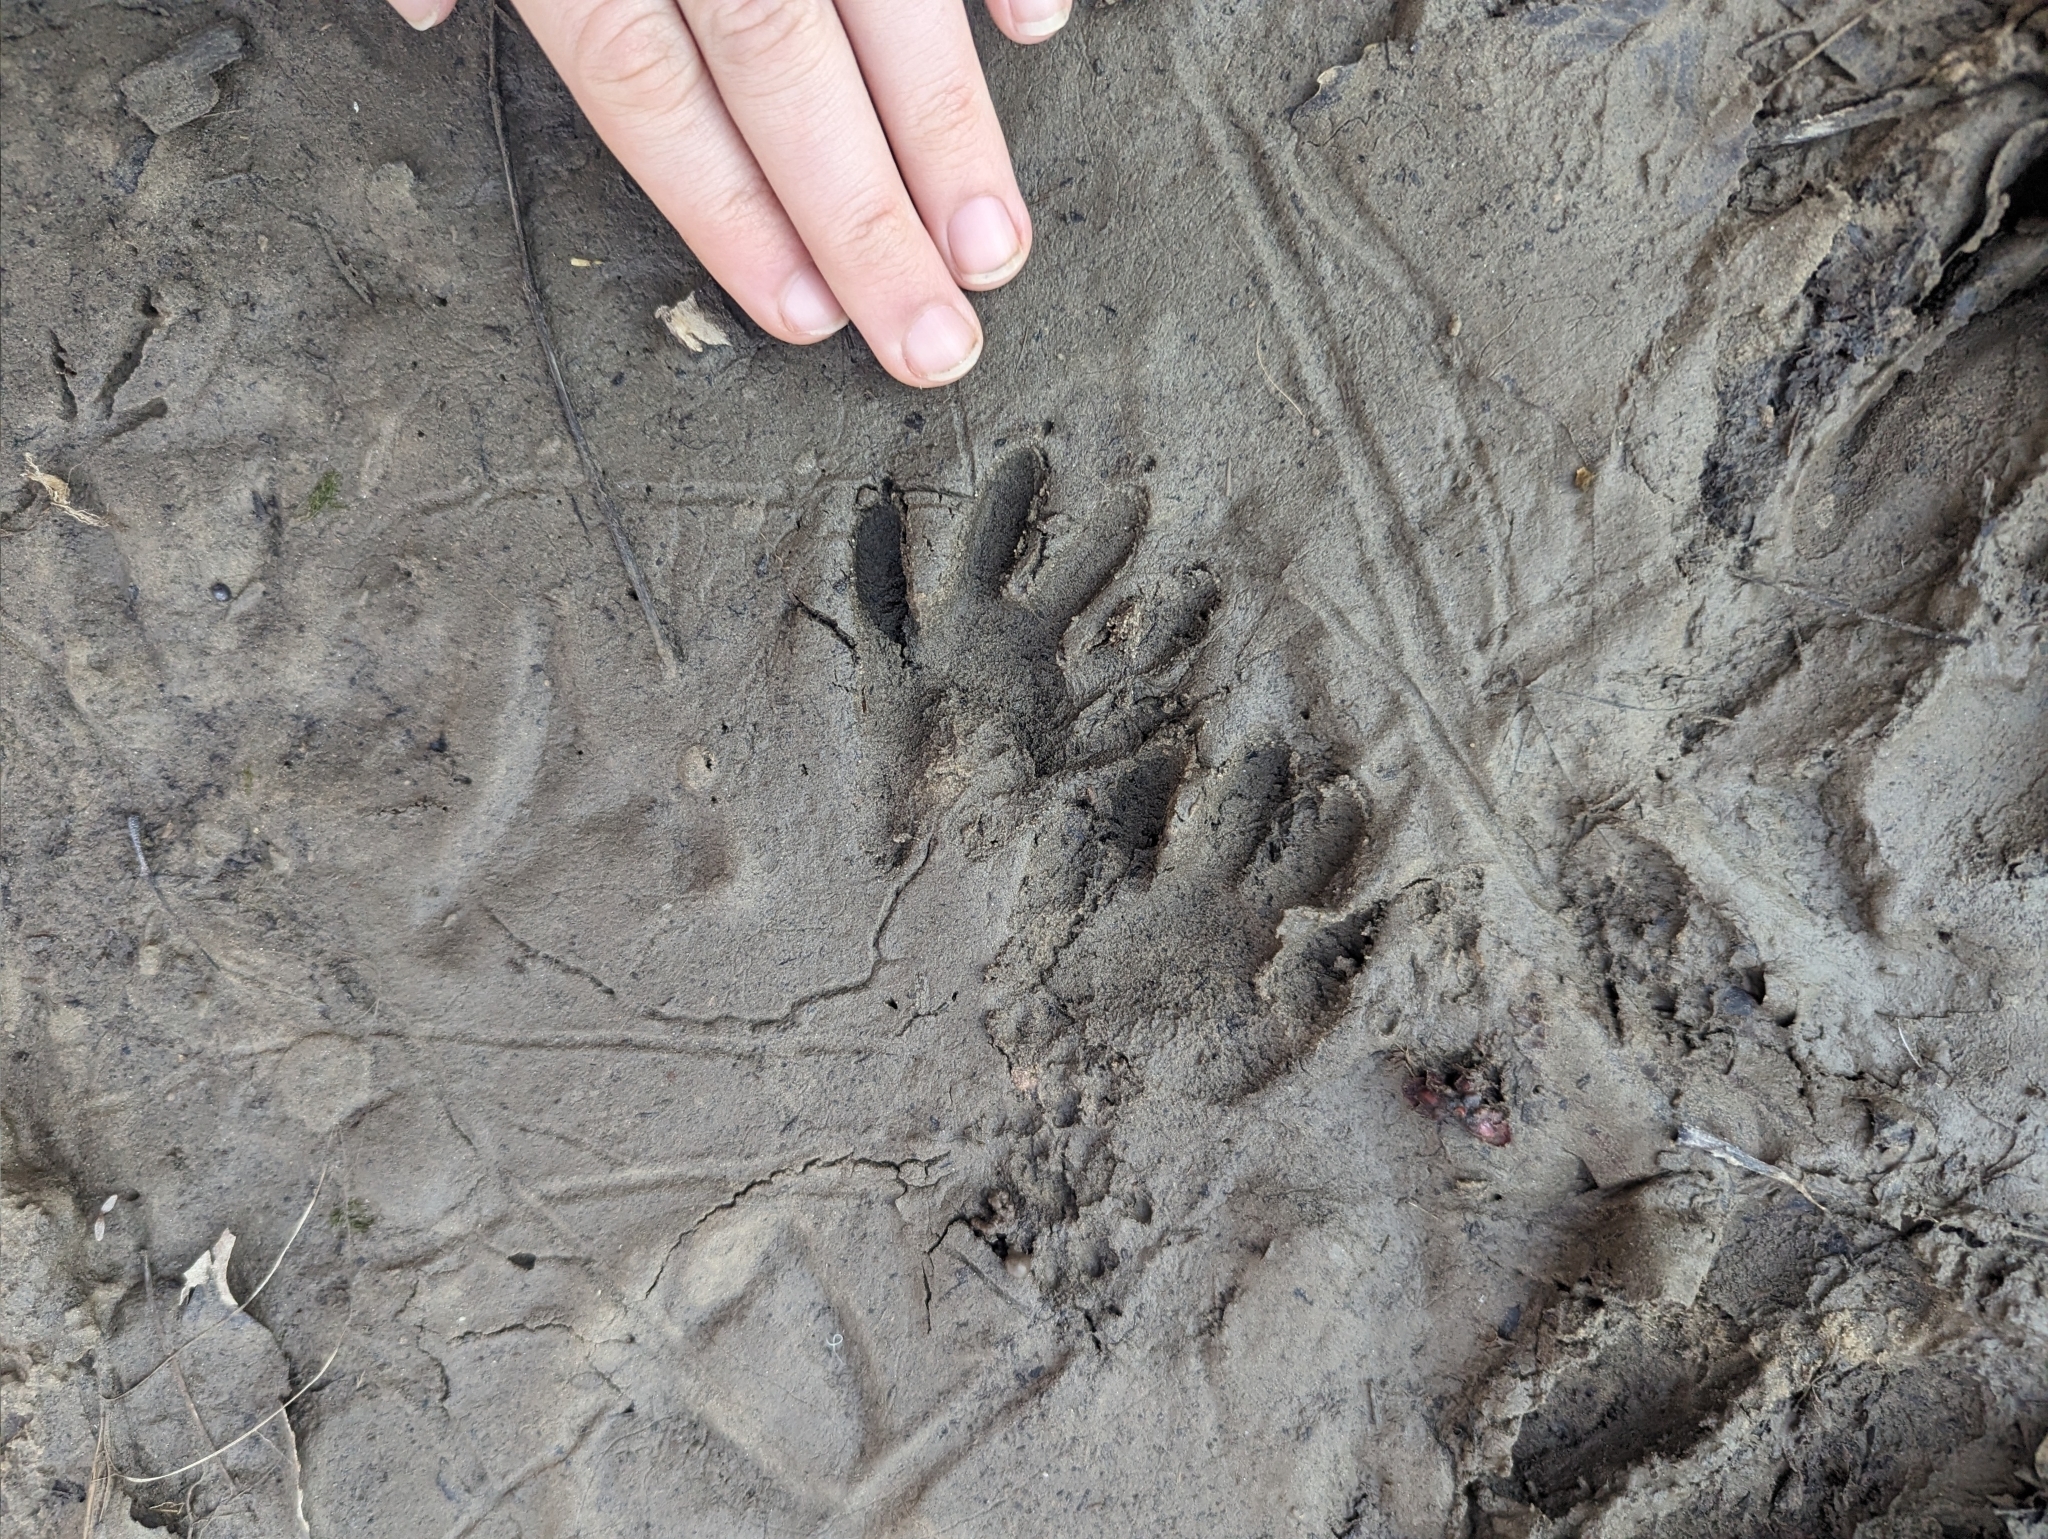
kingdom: Animalia
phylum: Chordata
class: Mammalia
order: Carnivora
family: Procyonidae
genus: Procyon
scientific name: Procyon lotor
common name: Raccoon
